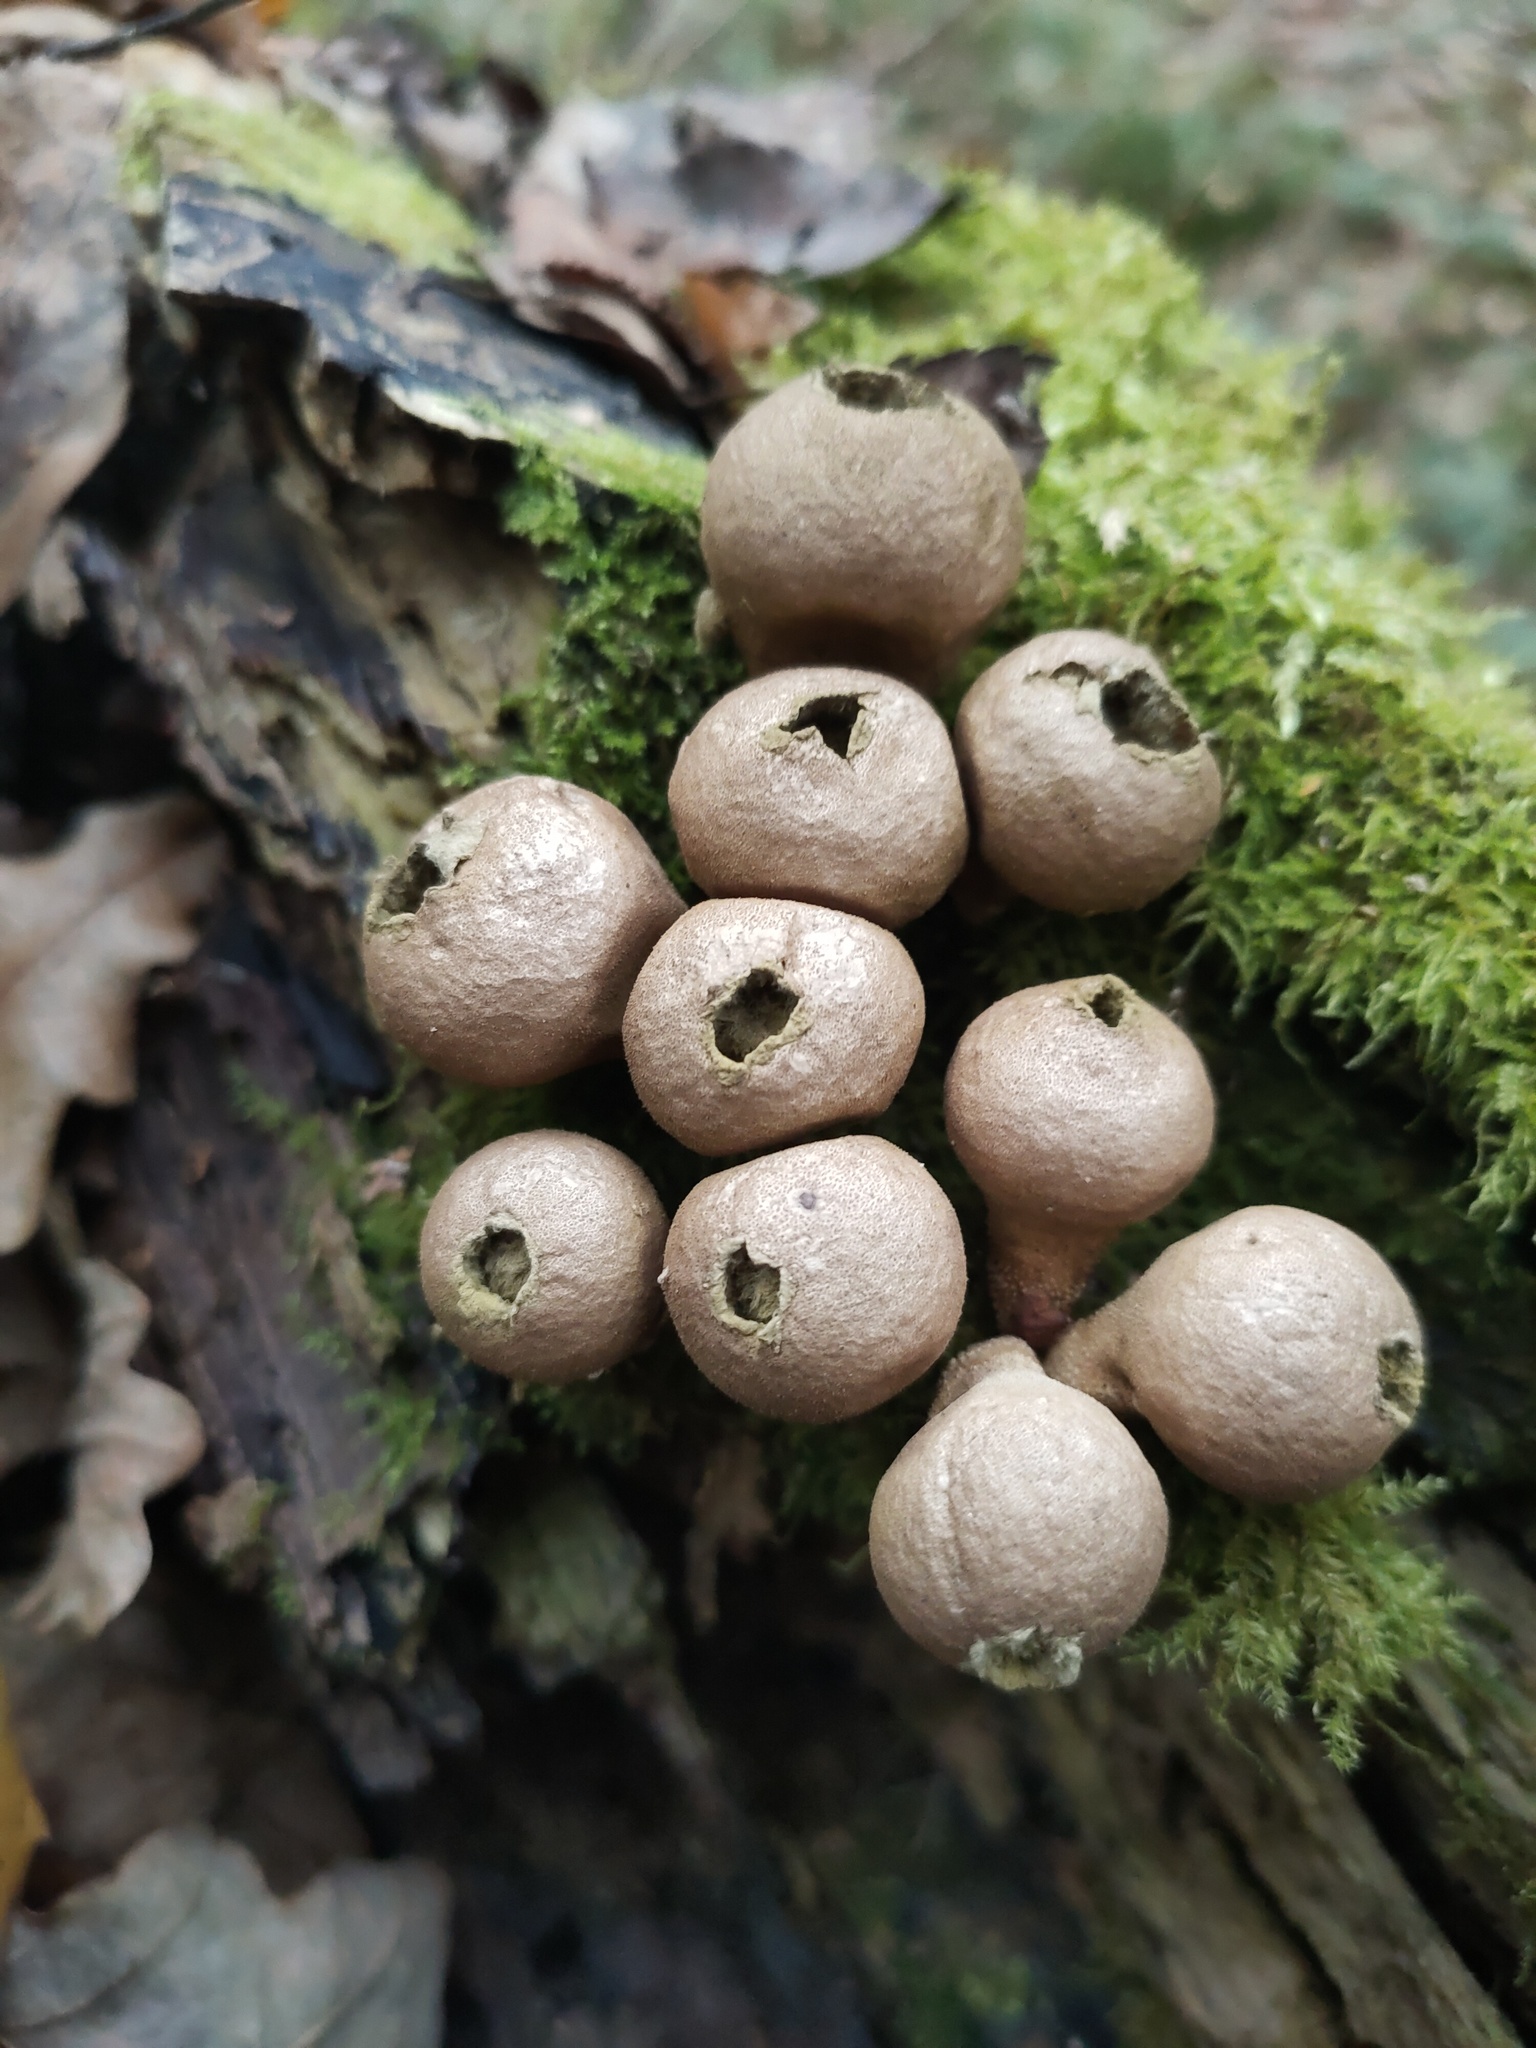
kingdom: Fungi
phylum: Basidiomycota
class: Agaricomycetes
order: Agaricales
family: Lycoperdaceae
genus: Apioperdon
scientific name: Apioperdon pyriforme
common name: Pear-shaped puffball
